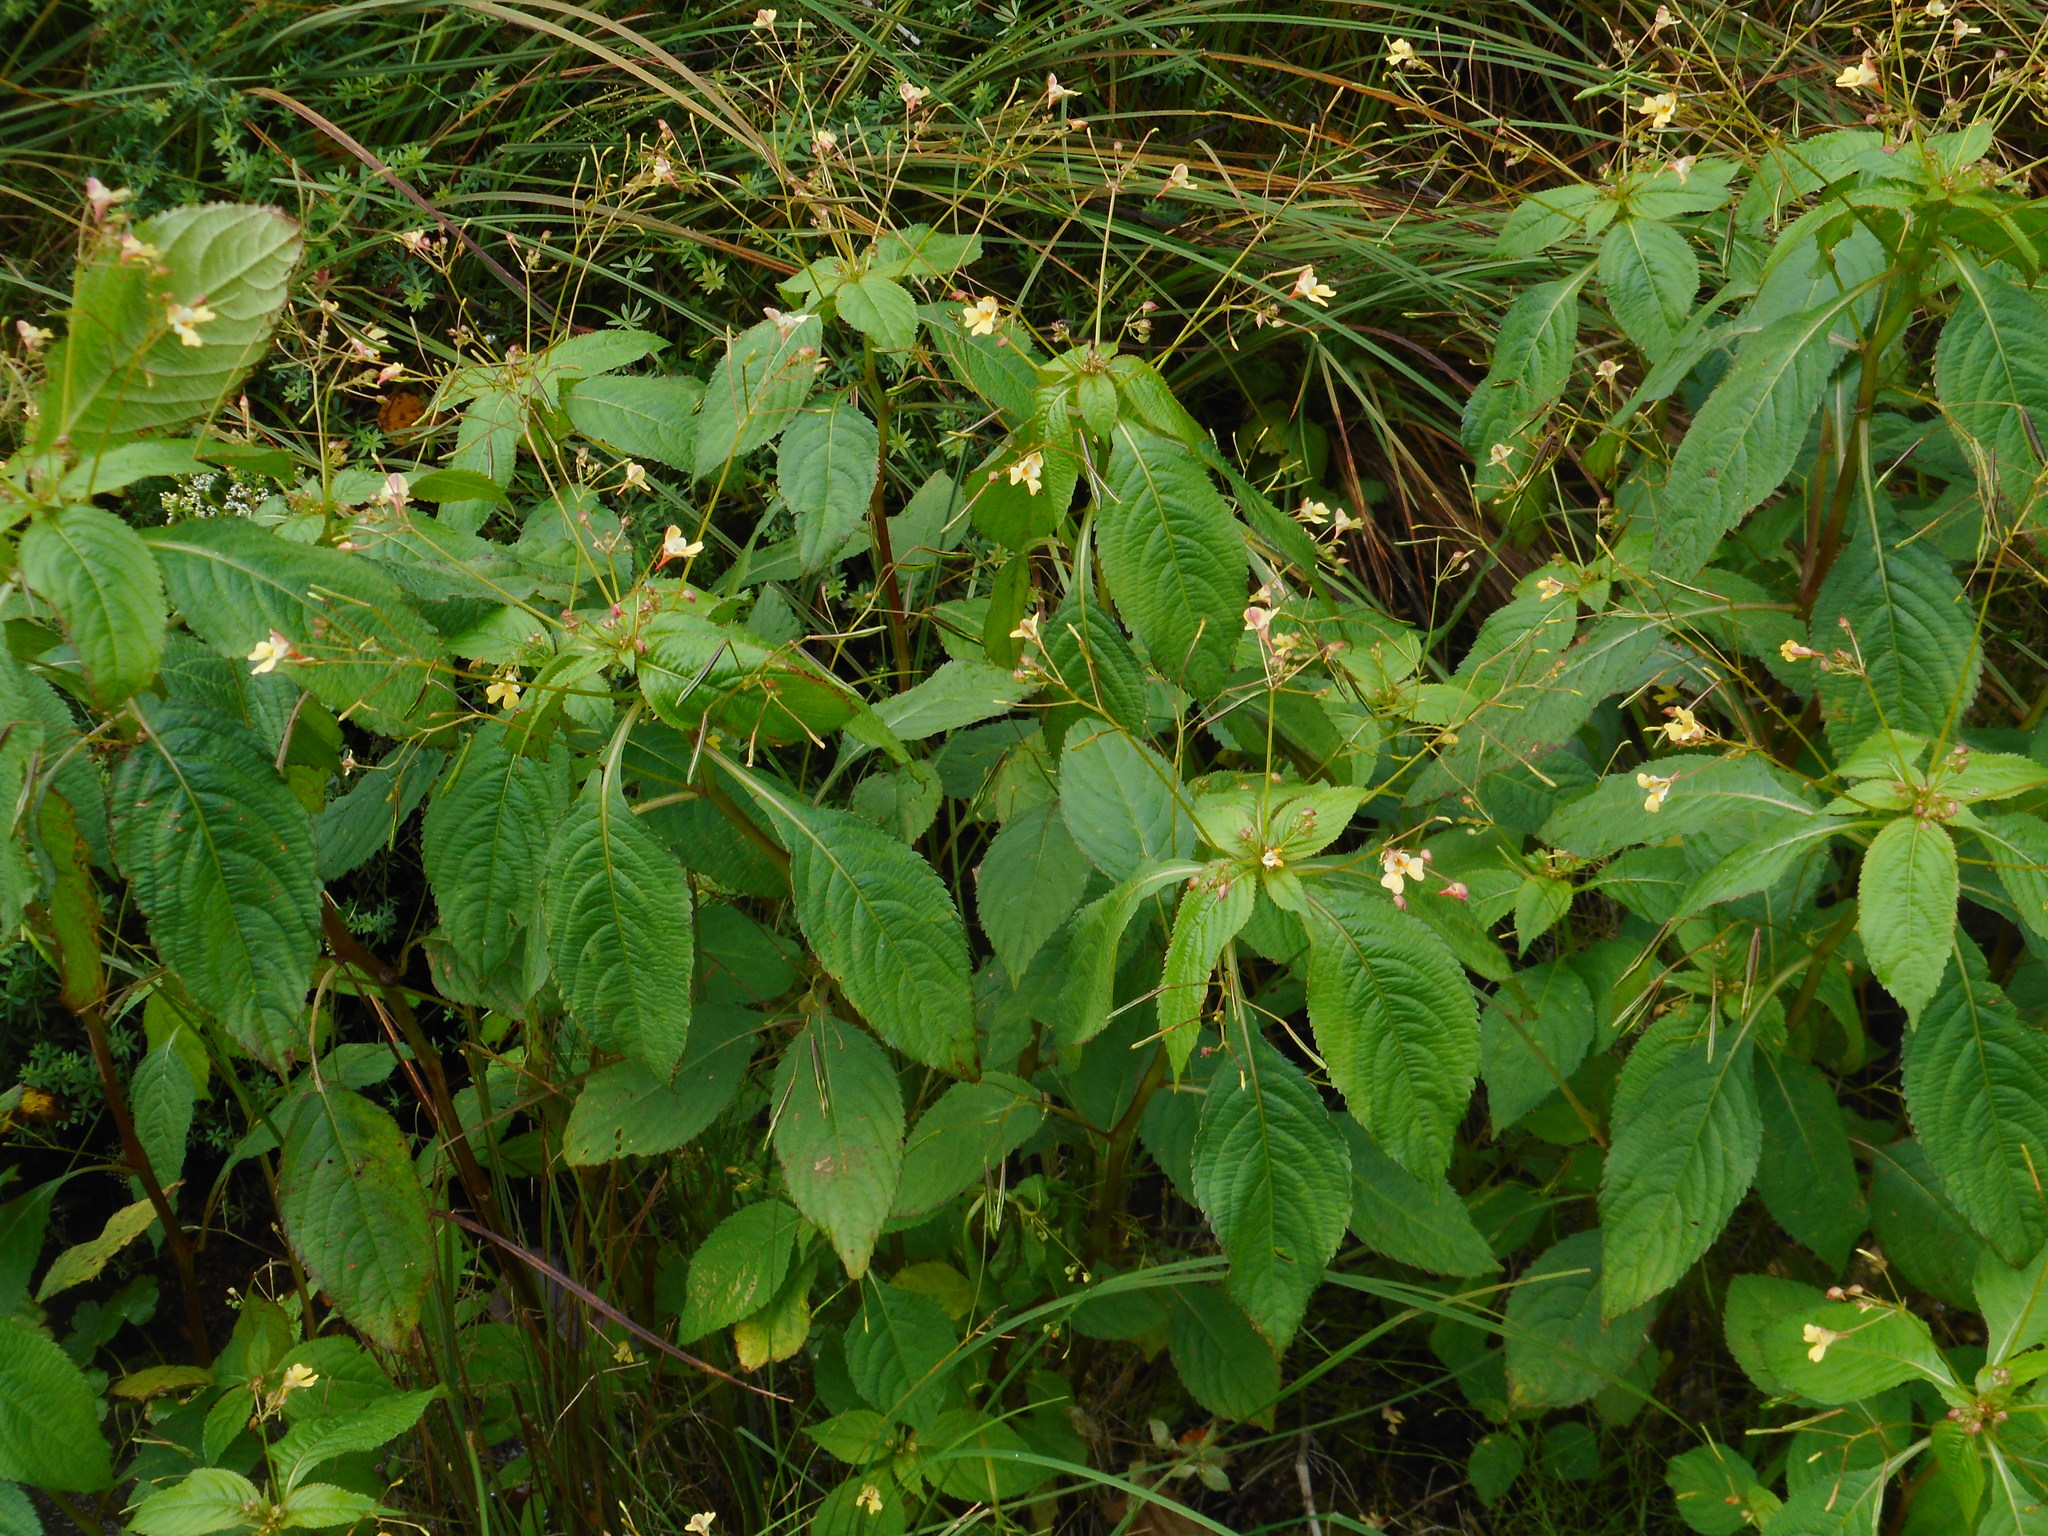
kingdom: Plantae
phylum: Tracheophyta
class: Magnoliopsida
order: Ericales
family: Balsaminaceae
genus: Impatiens
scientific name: Impatiens parviflora
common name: Small balsam
